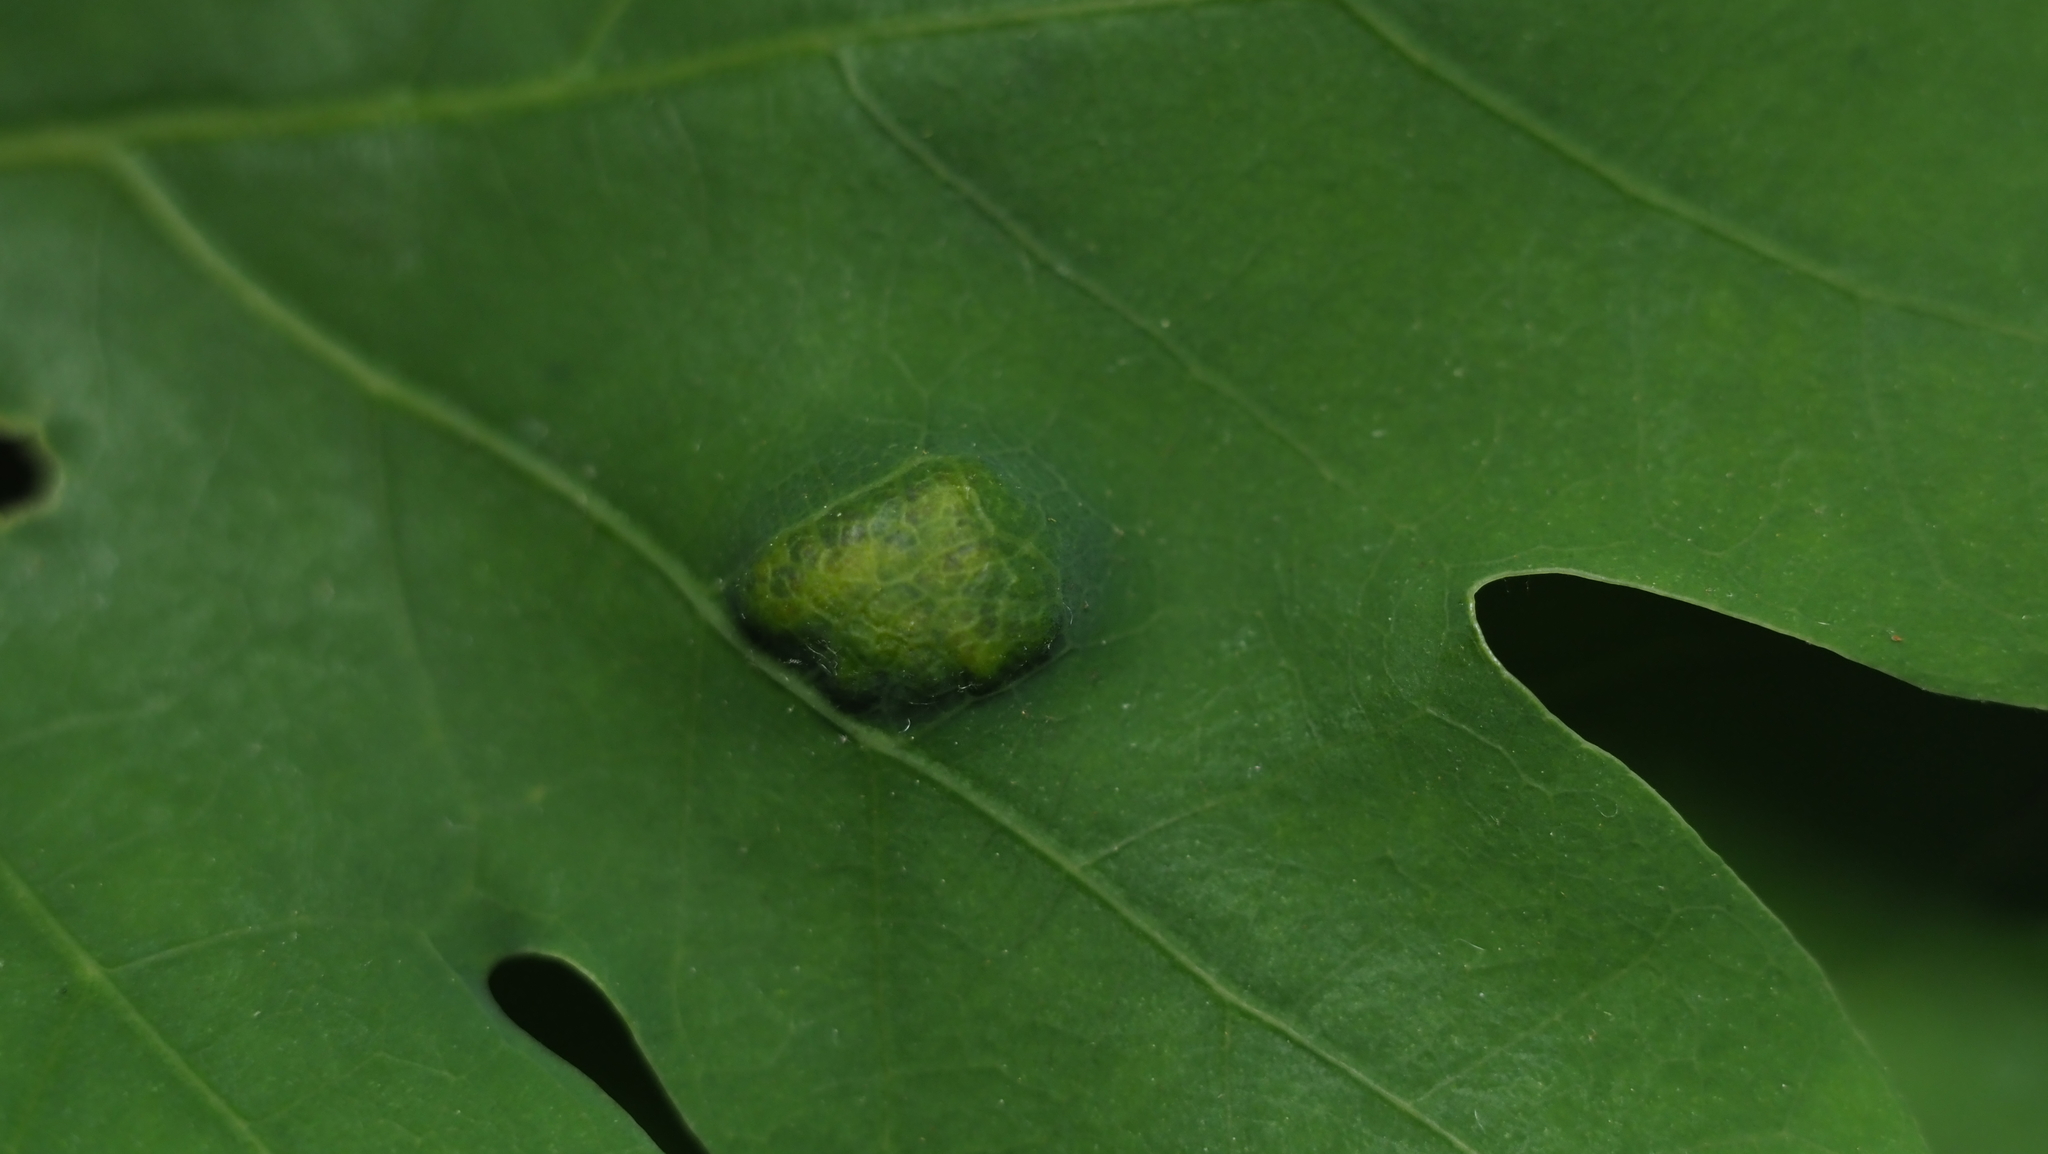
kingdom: Animalia
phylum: Arthropoda
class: Arachnida
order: Trombidiformes
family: Eriophyidae
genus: Aceria
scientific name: Aceria
